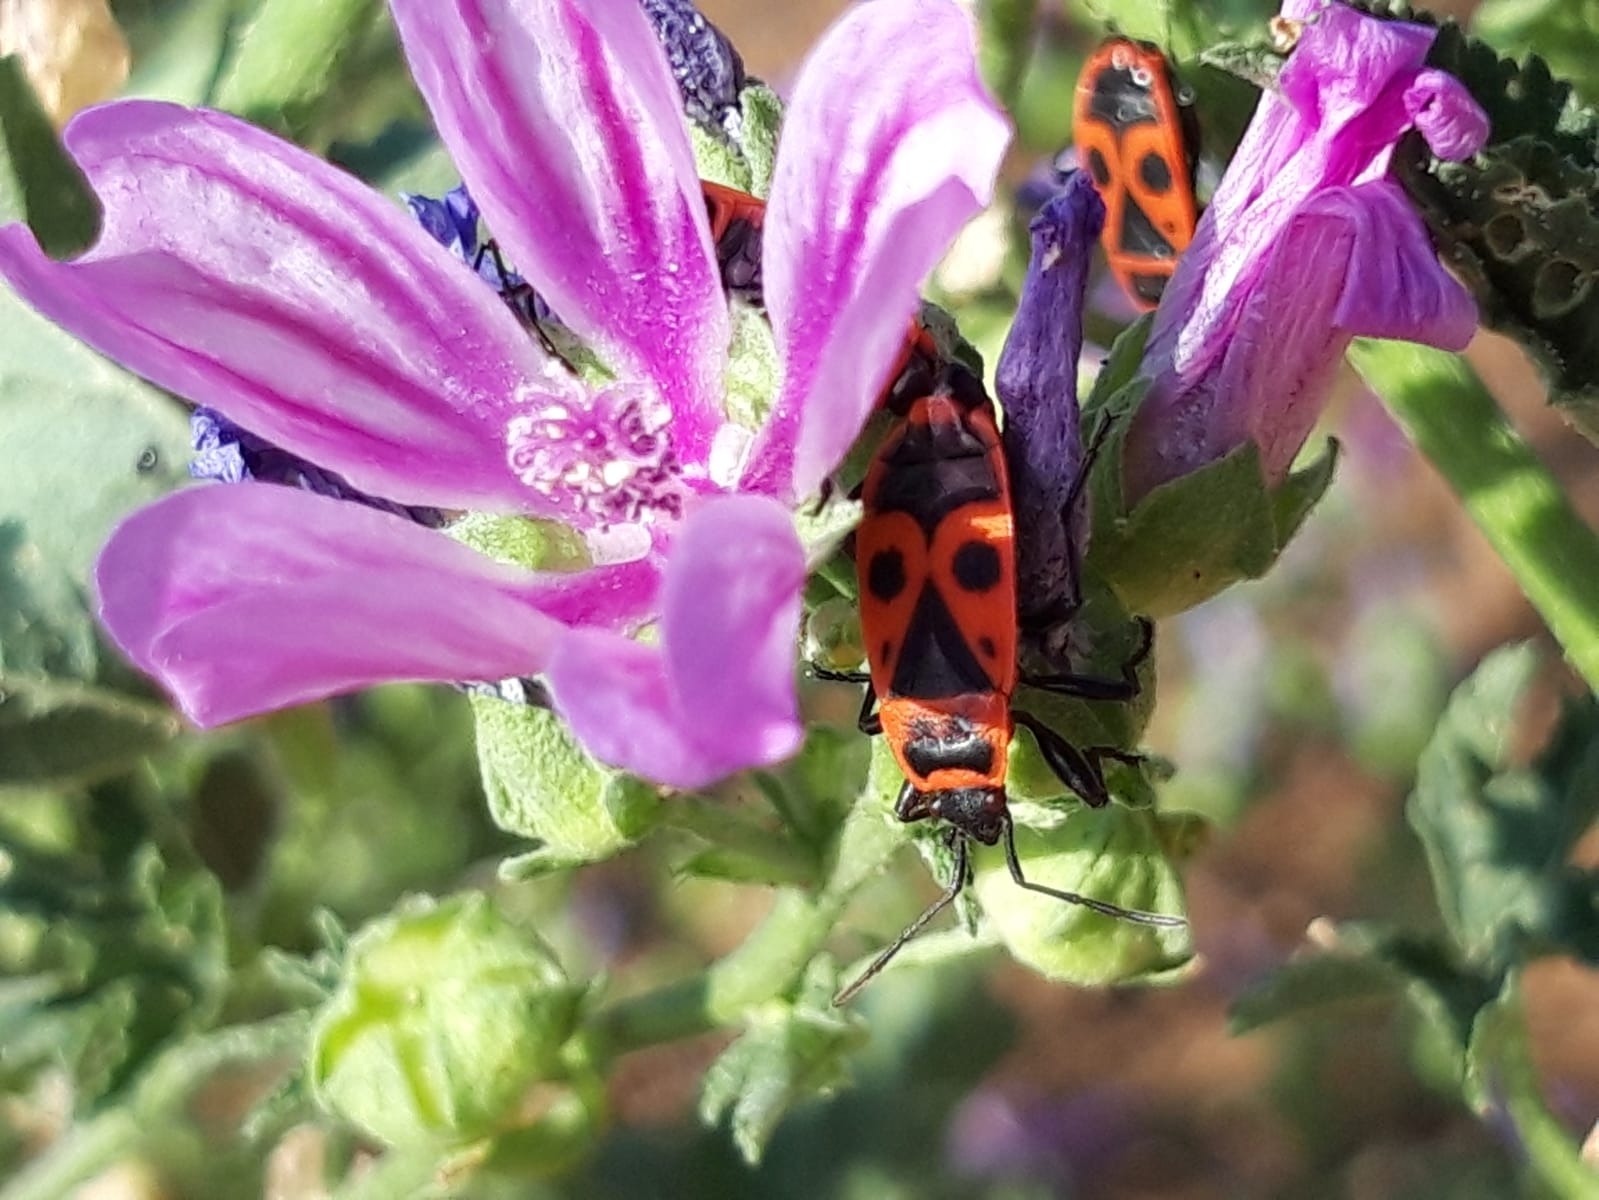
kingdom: Animalia
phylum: Arthropoda
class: Insecta
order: Hemiptera
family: Pyrrhocoridae
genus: Pyrrhocoris
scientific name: Pyrrhocoris apterus
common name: Firebug
